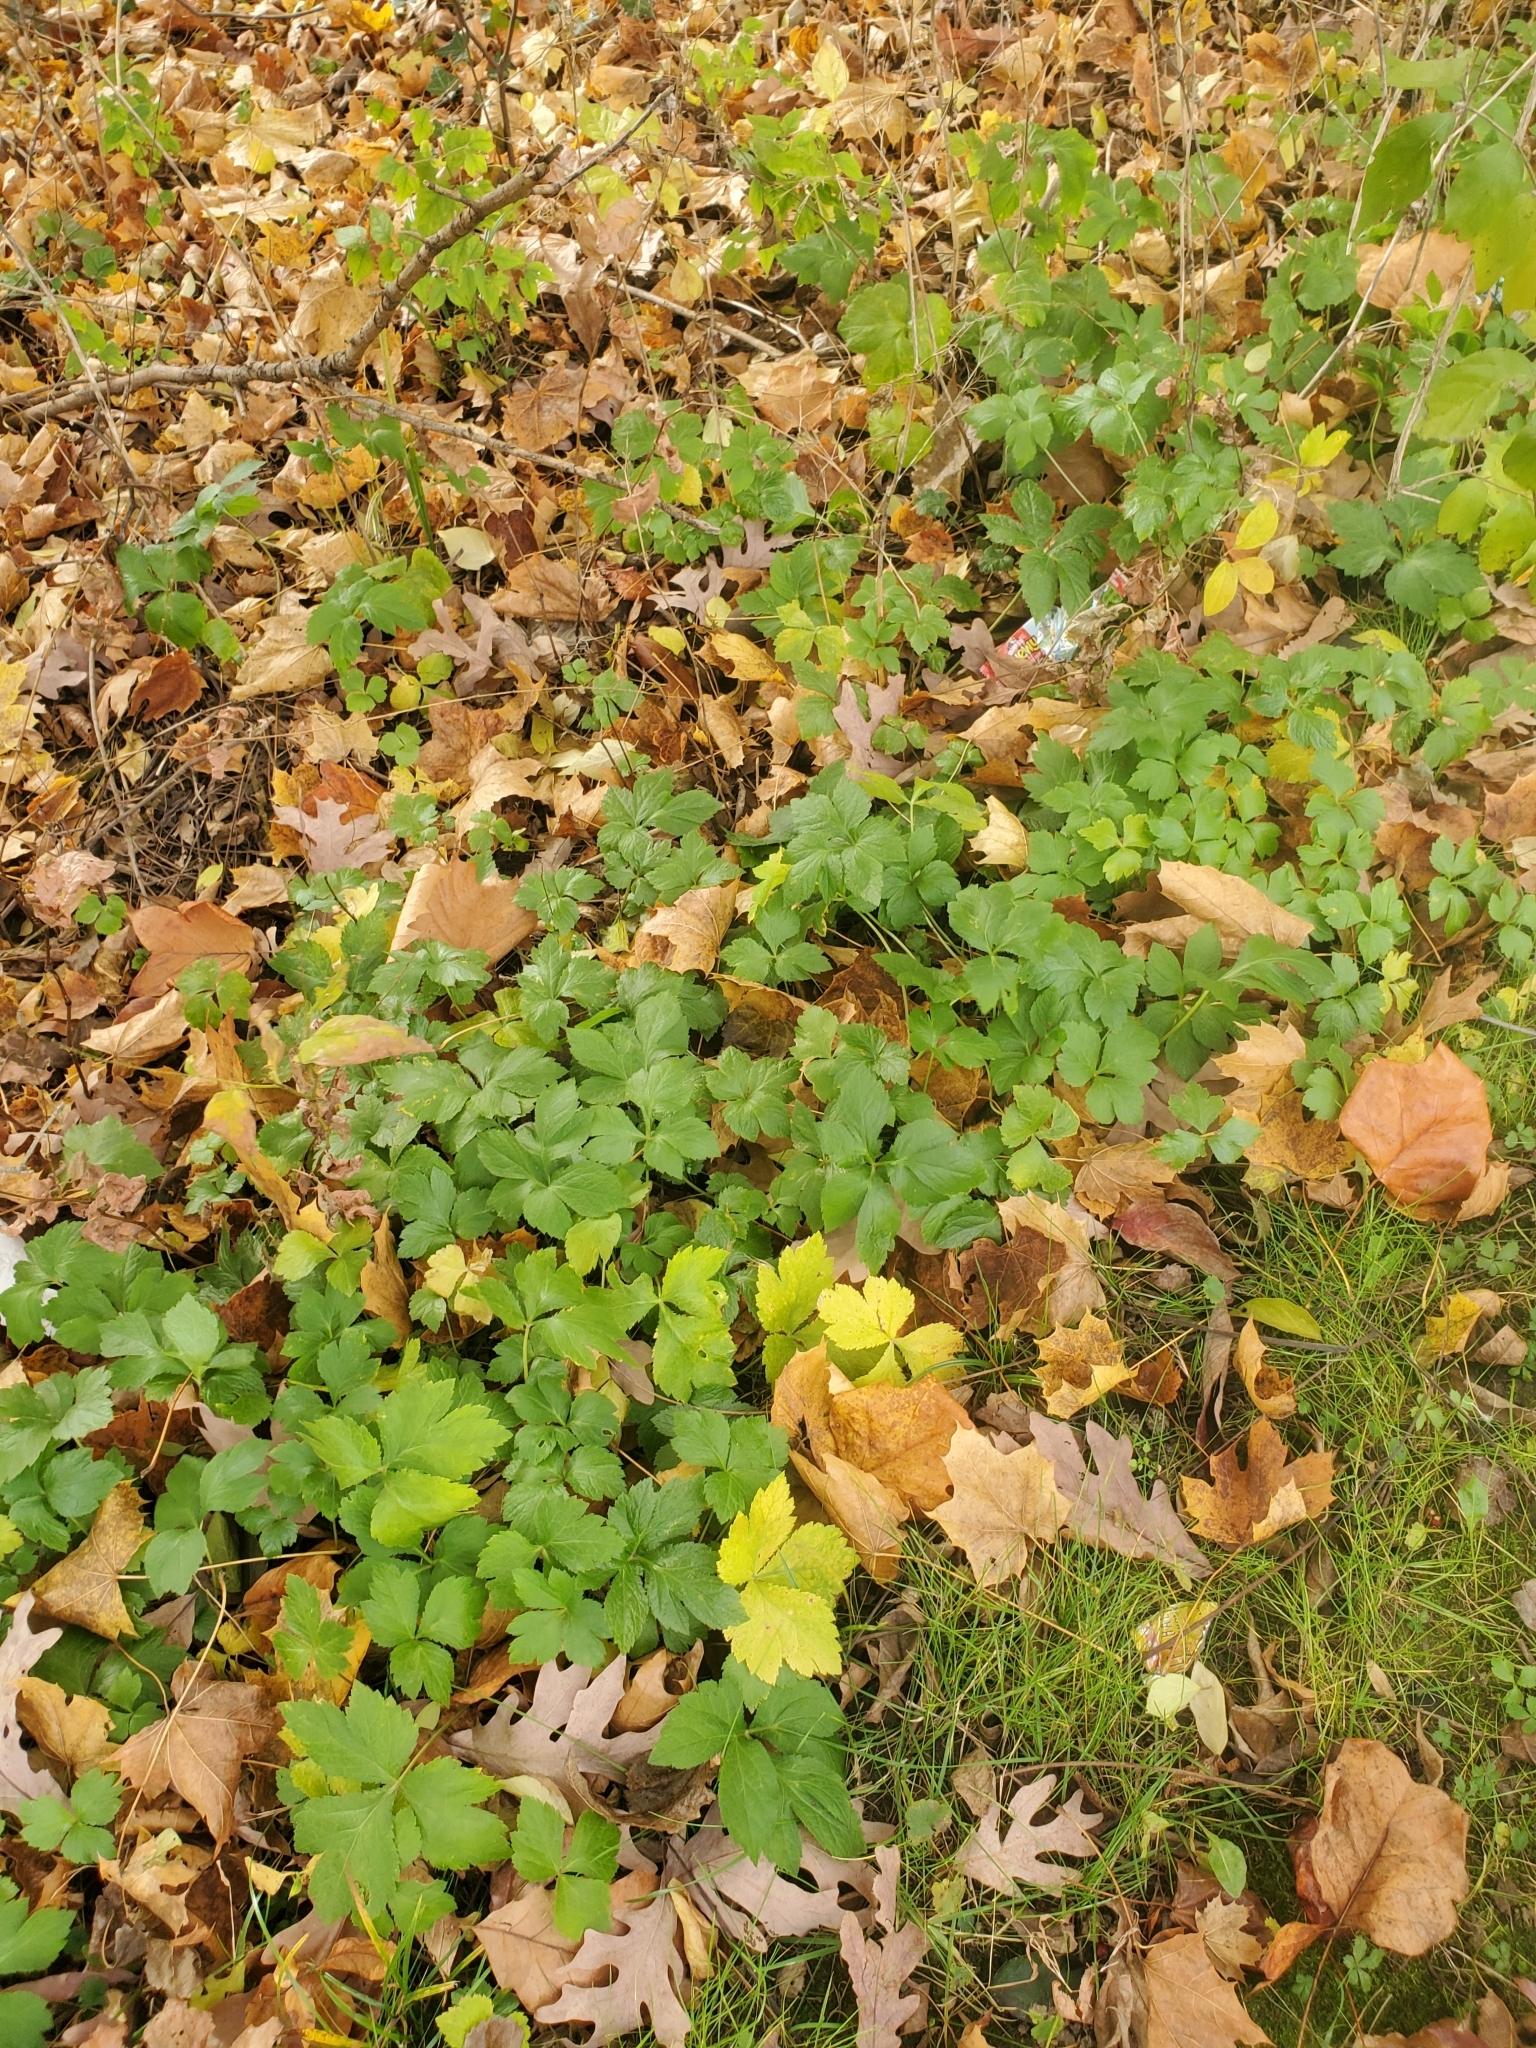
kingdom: Plantae
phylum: Tracheophyta
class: Magnoliopsida
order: Apiales
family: Apiaceae
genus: Cryptotaenia
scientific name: Cryptotaenia canadensis
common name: Honewort
